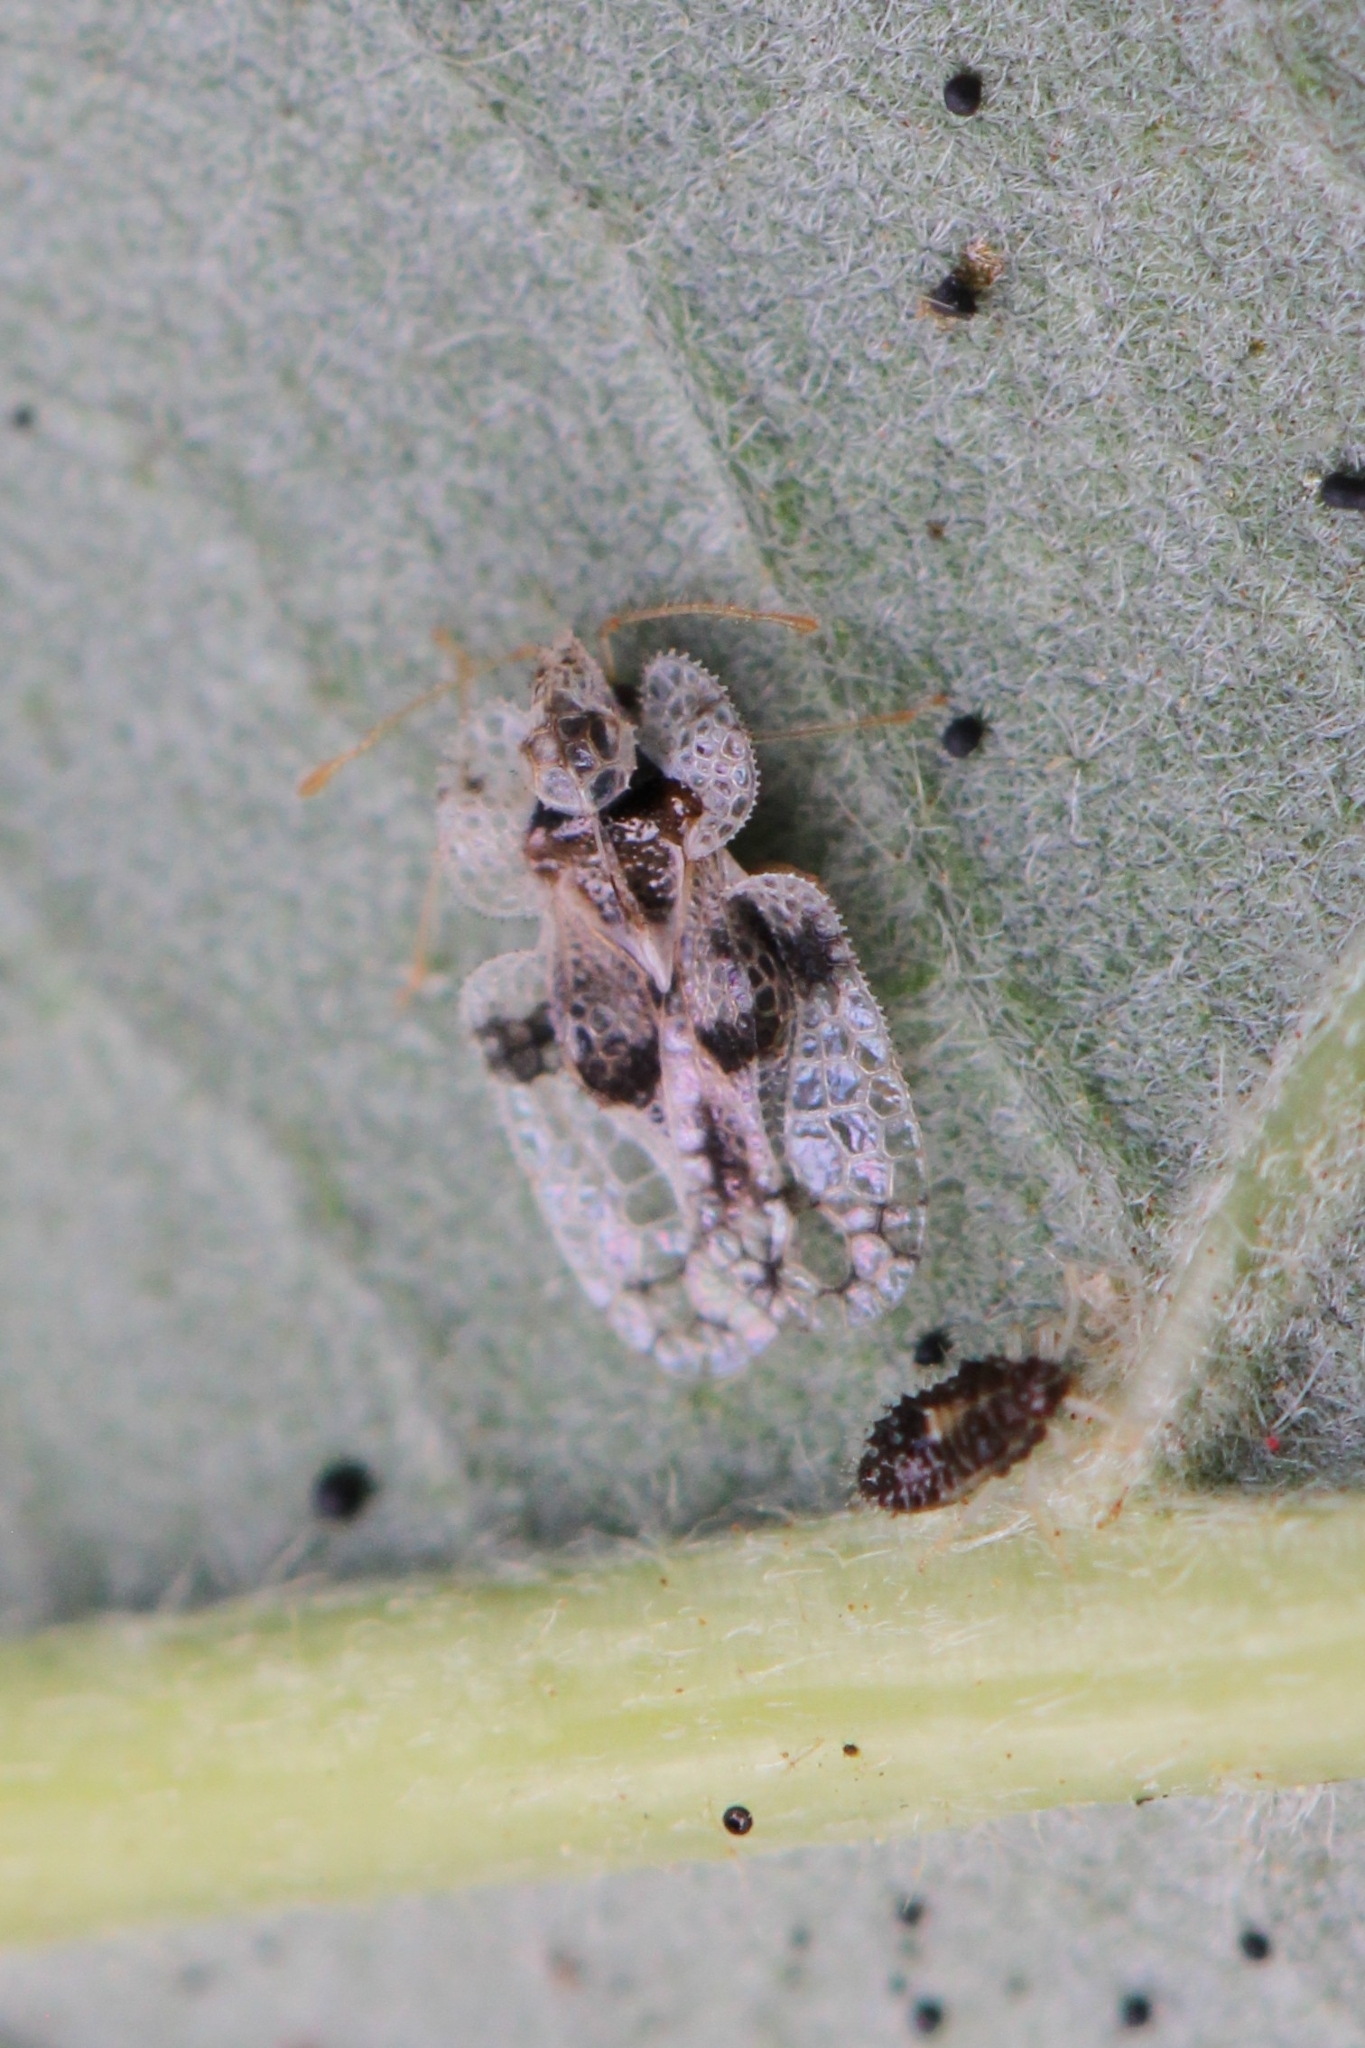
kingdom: Animalia
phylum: Arthropoda
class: Insecta
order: Hemiptera
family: Tingidae
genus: Corythucha
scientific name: Corythucha arcuata
